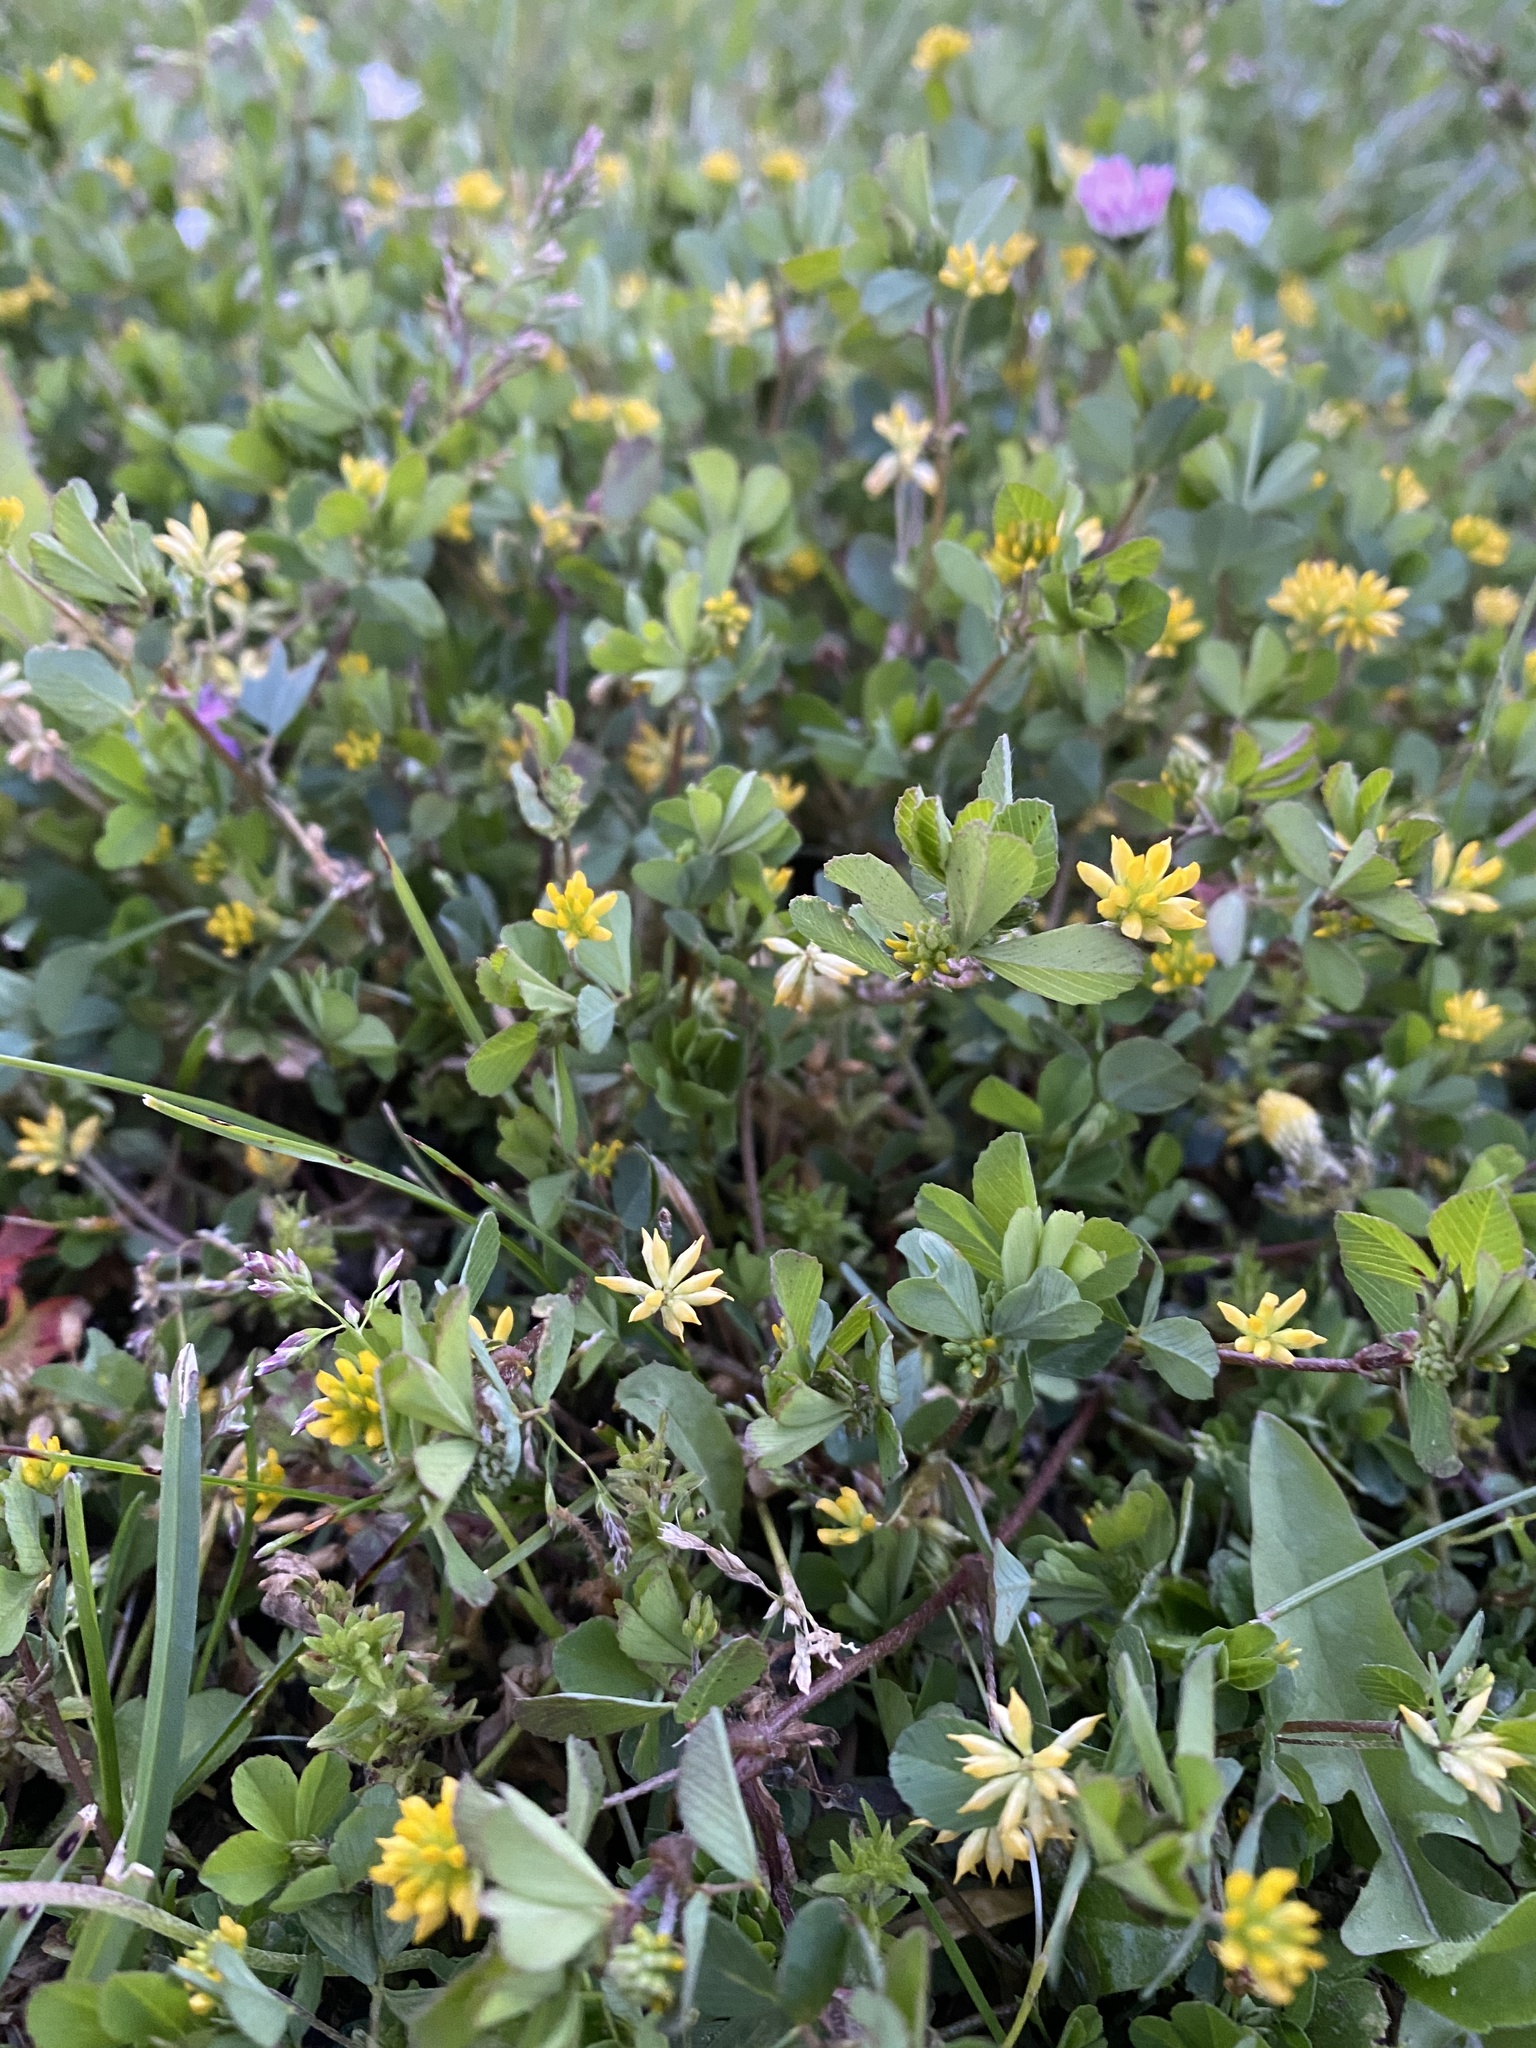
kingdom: Plantae
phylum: Tracheophyta
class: Magnoliopsida
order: Fabales
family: Fabaceae
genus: Trifolium
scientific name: Trifolium dubium
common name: Suckling clover
